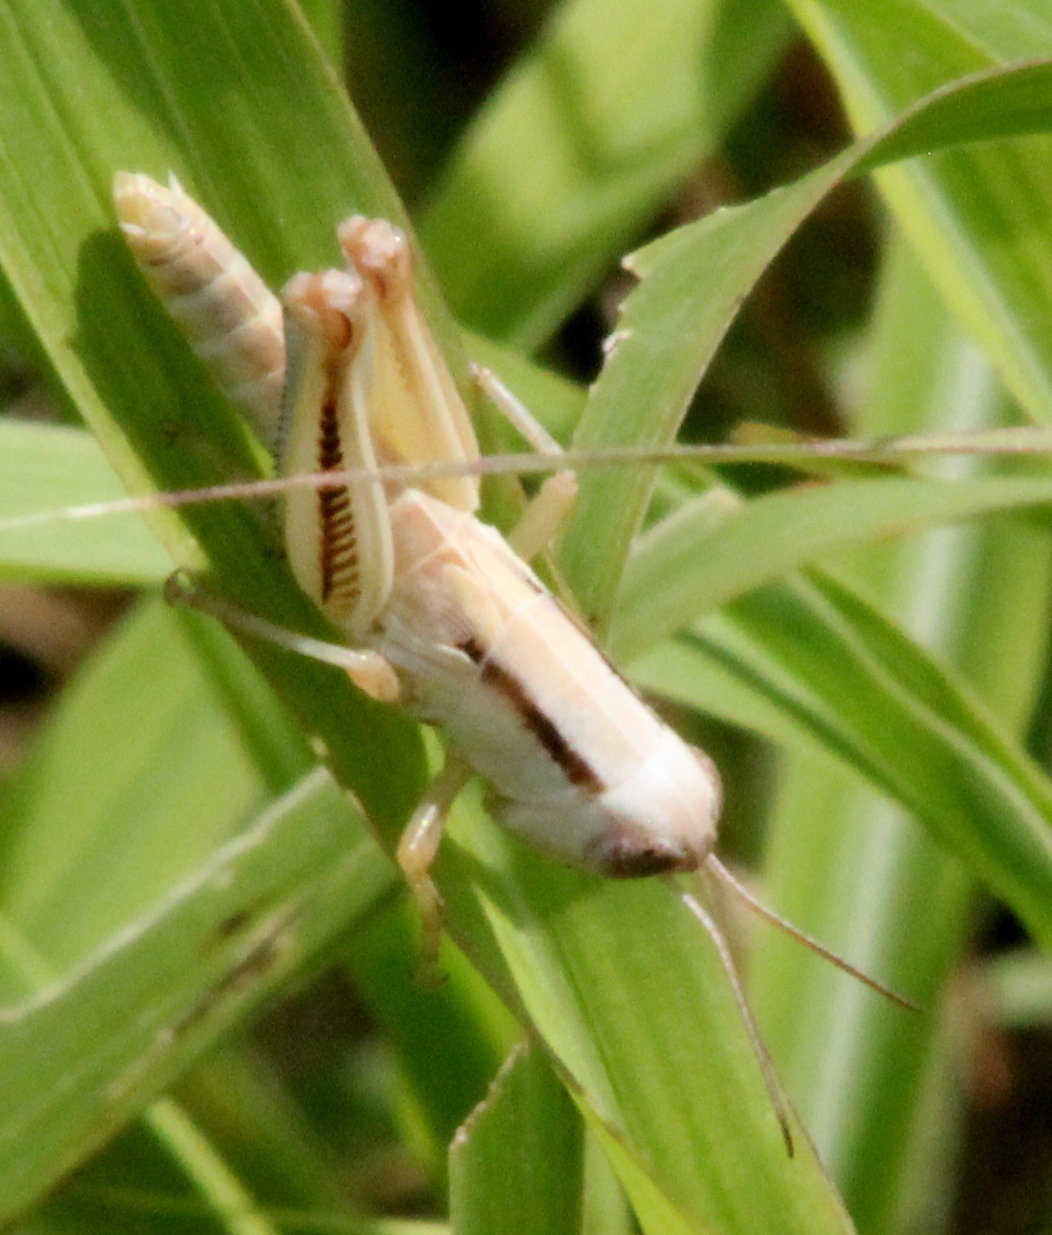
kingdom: Animalia
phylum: Arthropoda
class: Insecta
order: Orthoptera
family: Acrididae
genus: Phoetaliotes
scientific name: Phoetaliotes nebrascensis
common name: Large-headed grasshopper
